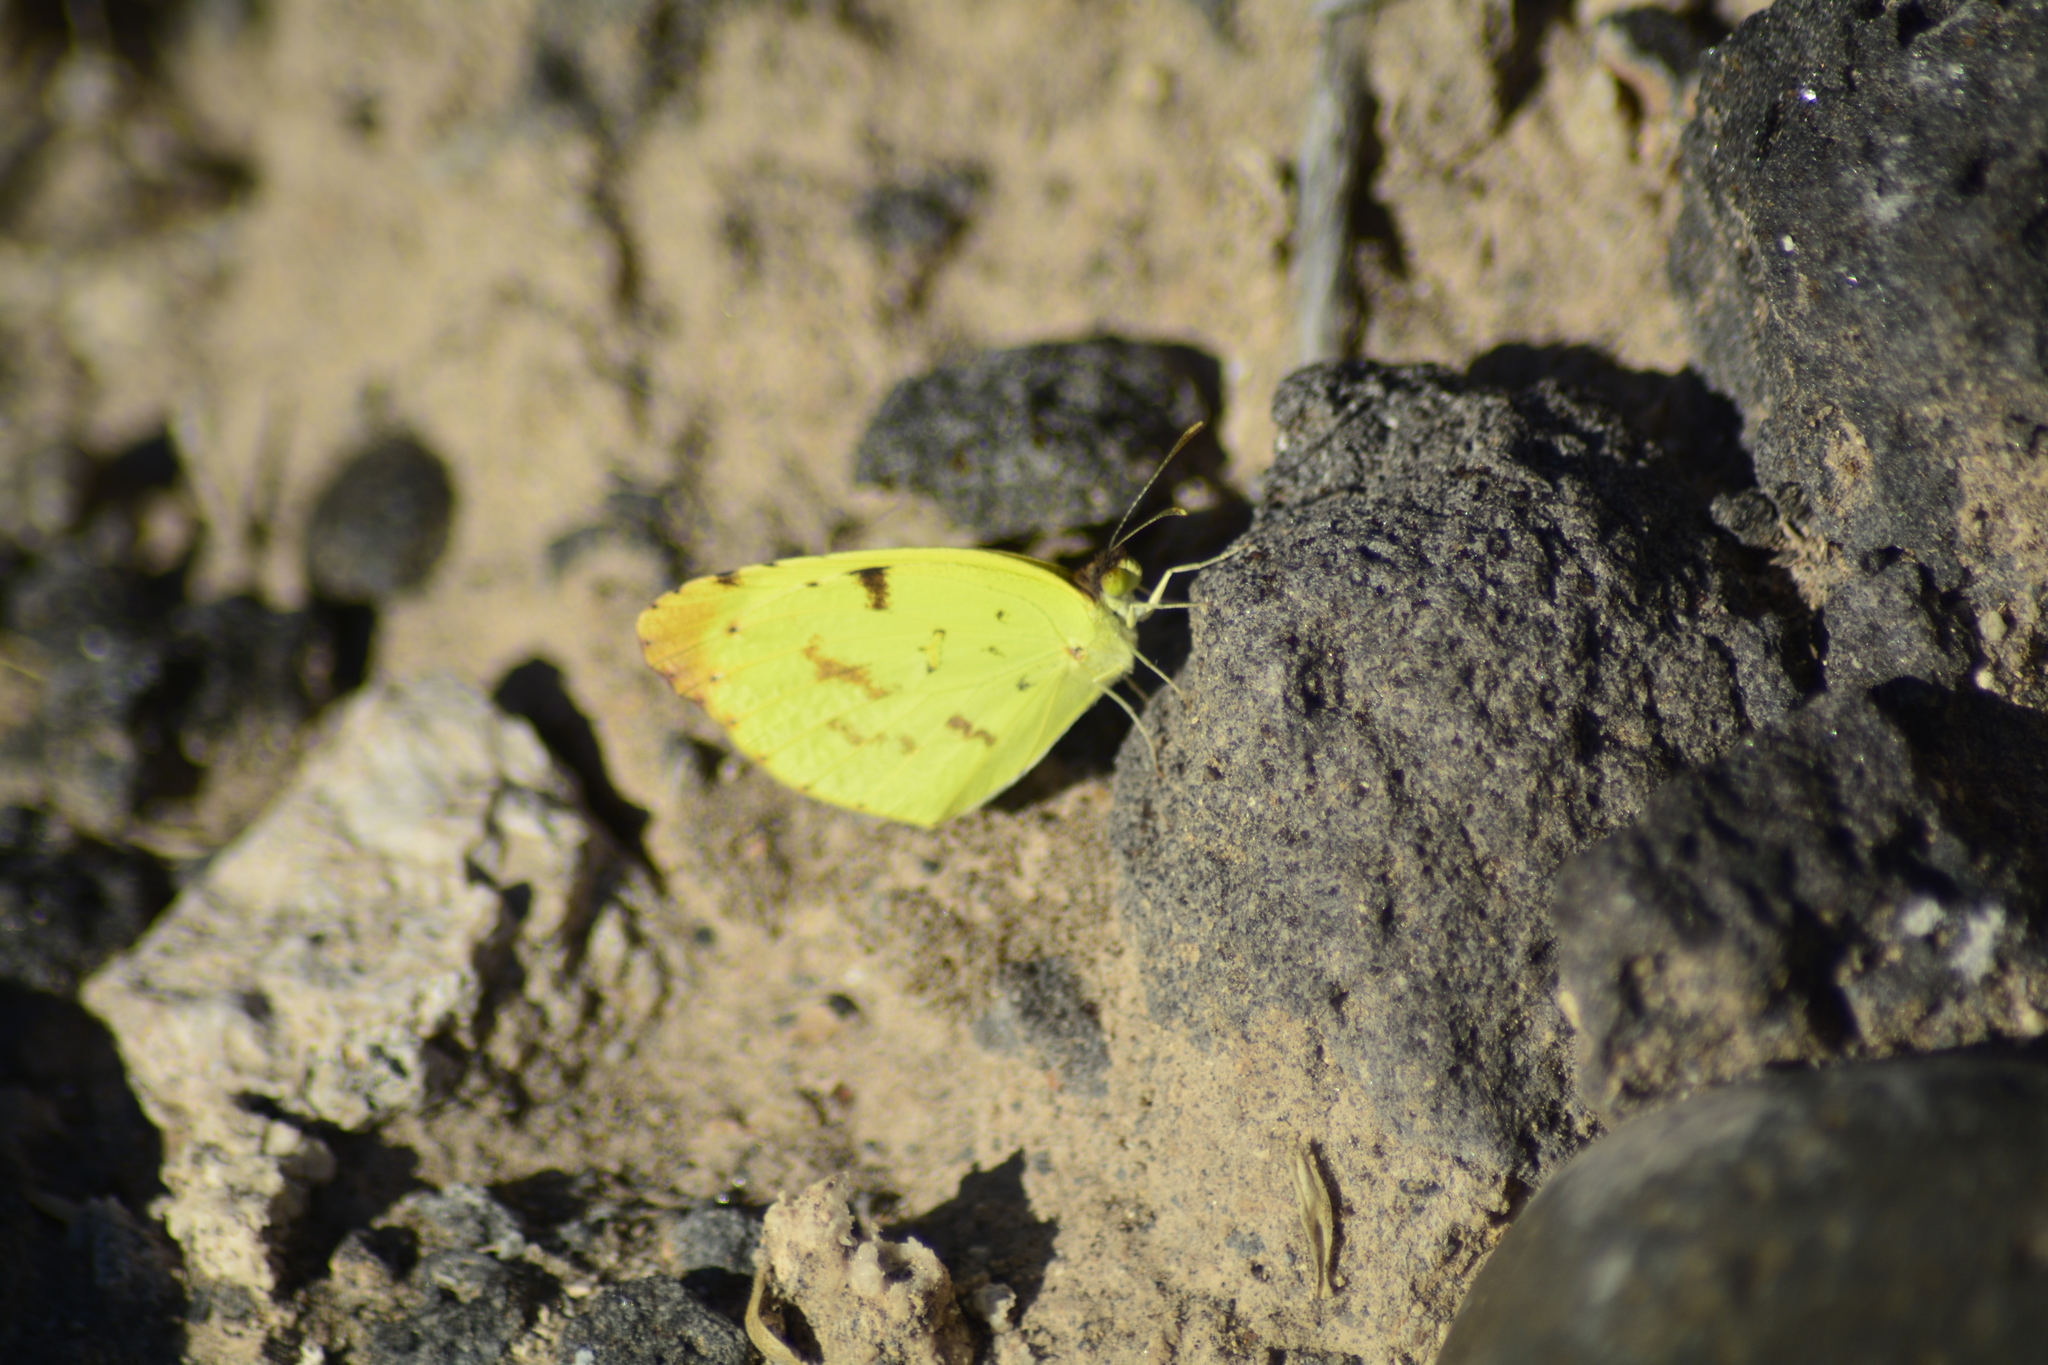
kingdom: Animalia
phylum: Arthropoda
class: Insecta
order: Lepidoptera
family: Pieridae
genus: Teriocolias
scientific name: Teriocolias
